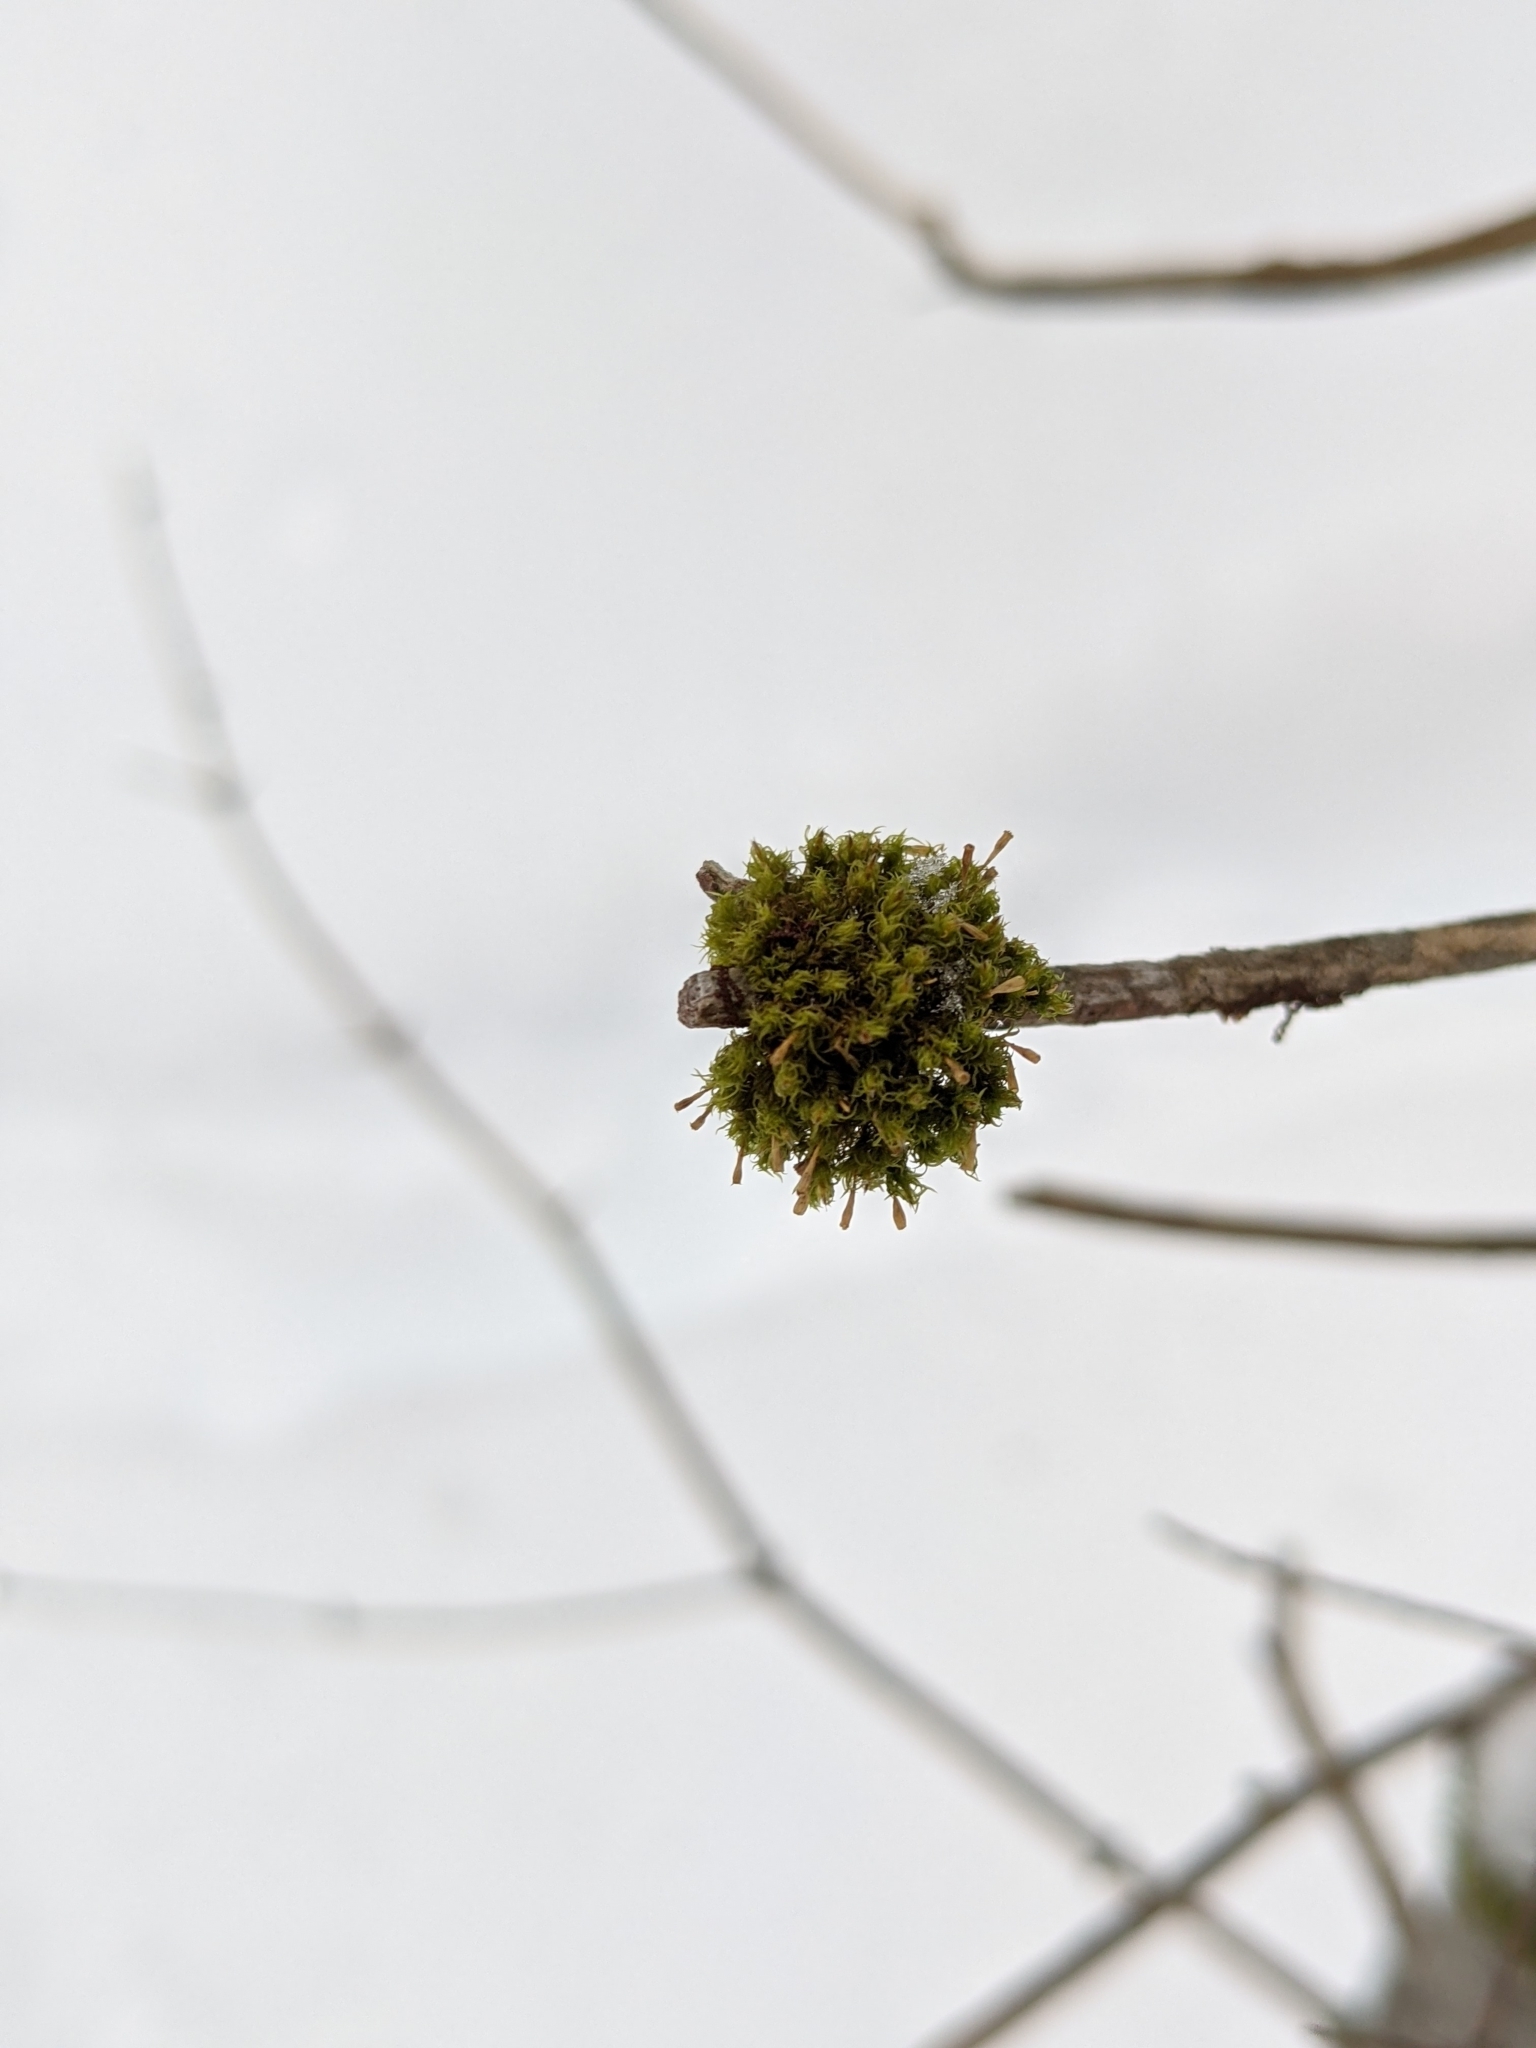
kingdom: Plantae
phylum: Bryophyta
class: Bryopsida
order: Orthotrichales
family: Orthotrichaceae
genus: Ulota
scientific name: Ulota crispa
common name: Crisped pincushion moss
